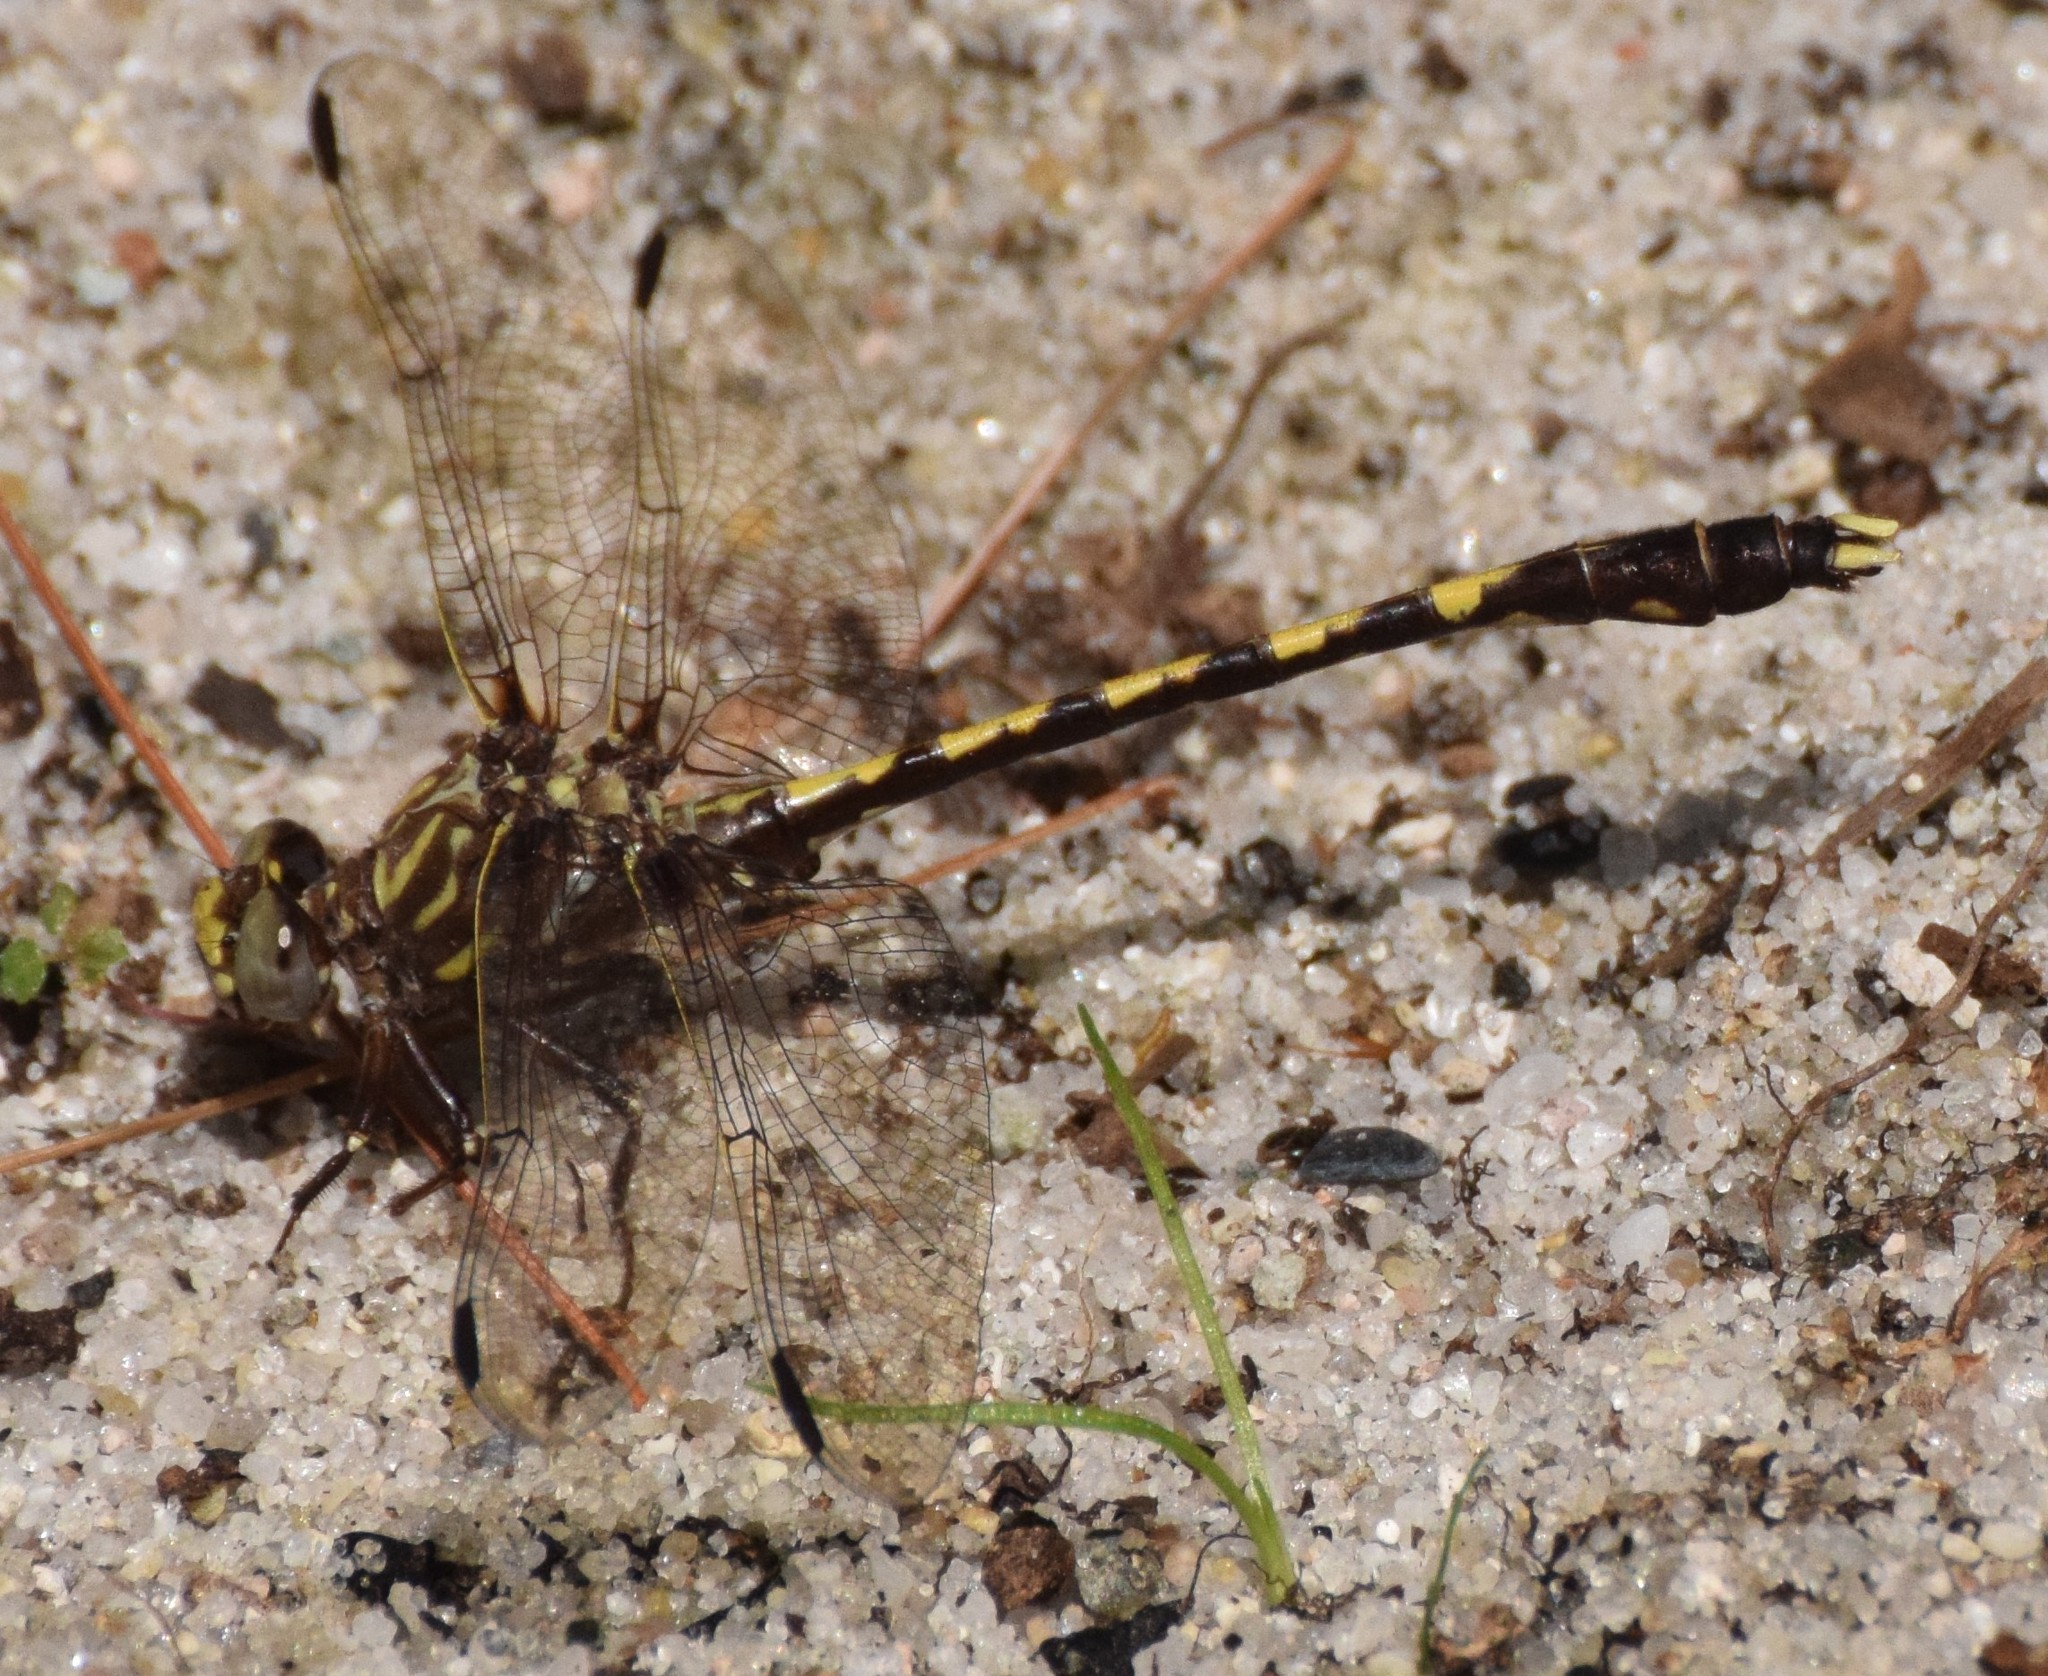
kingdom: Animalia
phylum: Arthropoda
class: Insecta
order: Odonata
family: Gomphidae
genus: Progomphus
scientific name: Progomphus obscurus
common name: Common sanddragon
